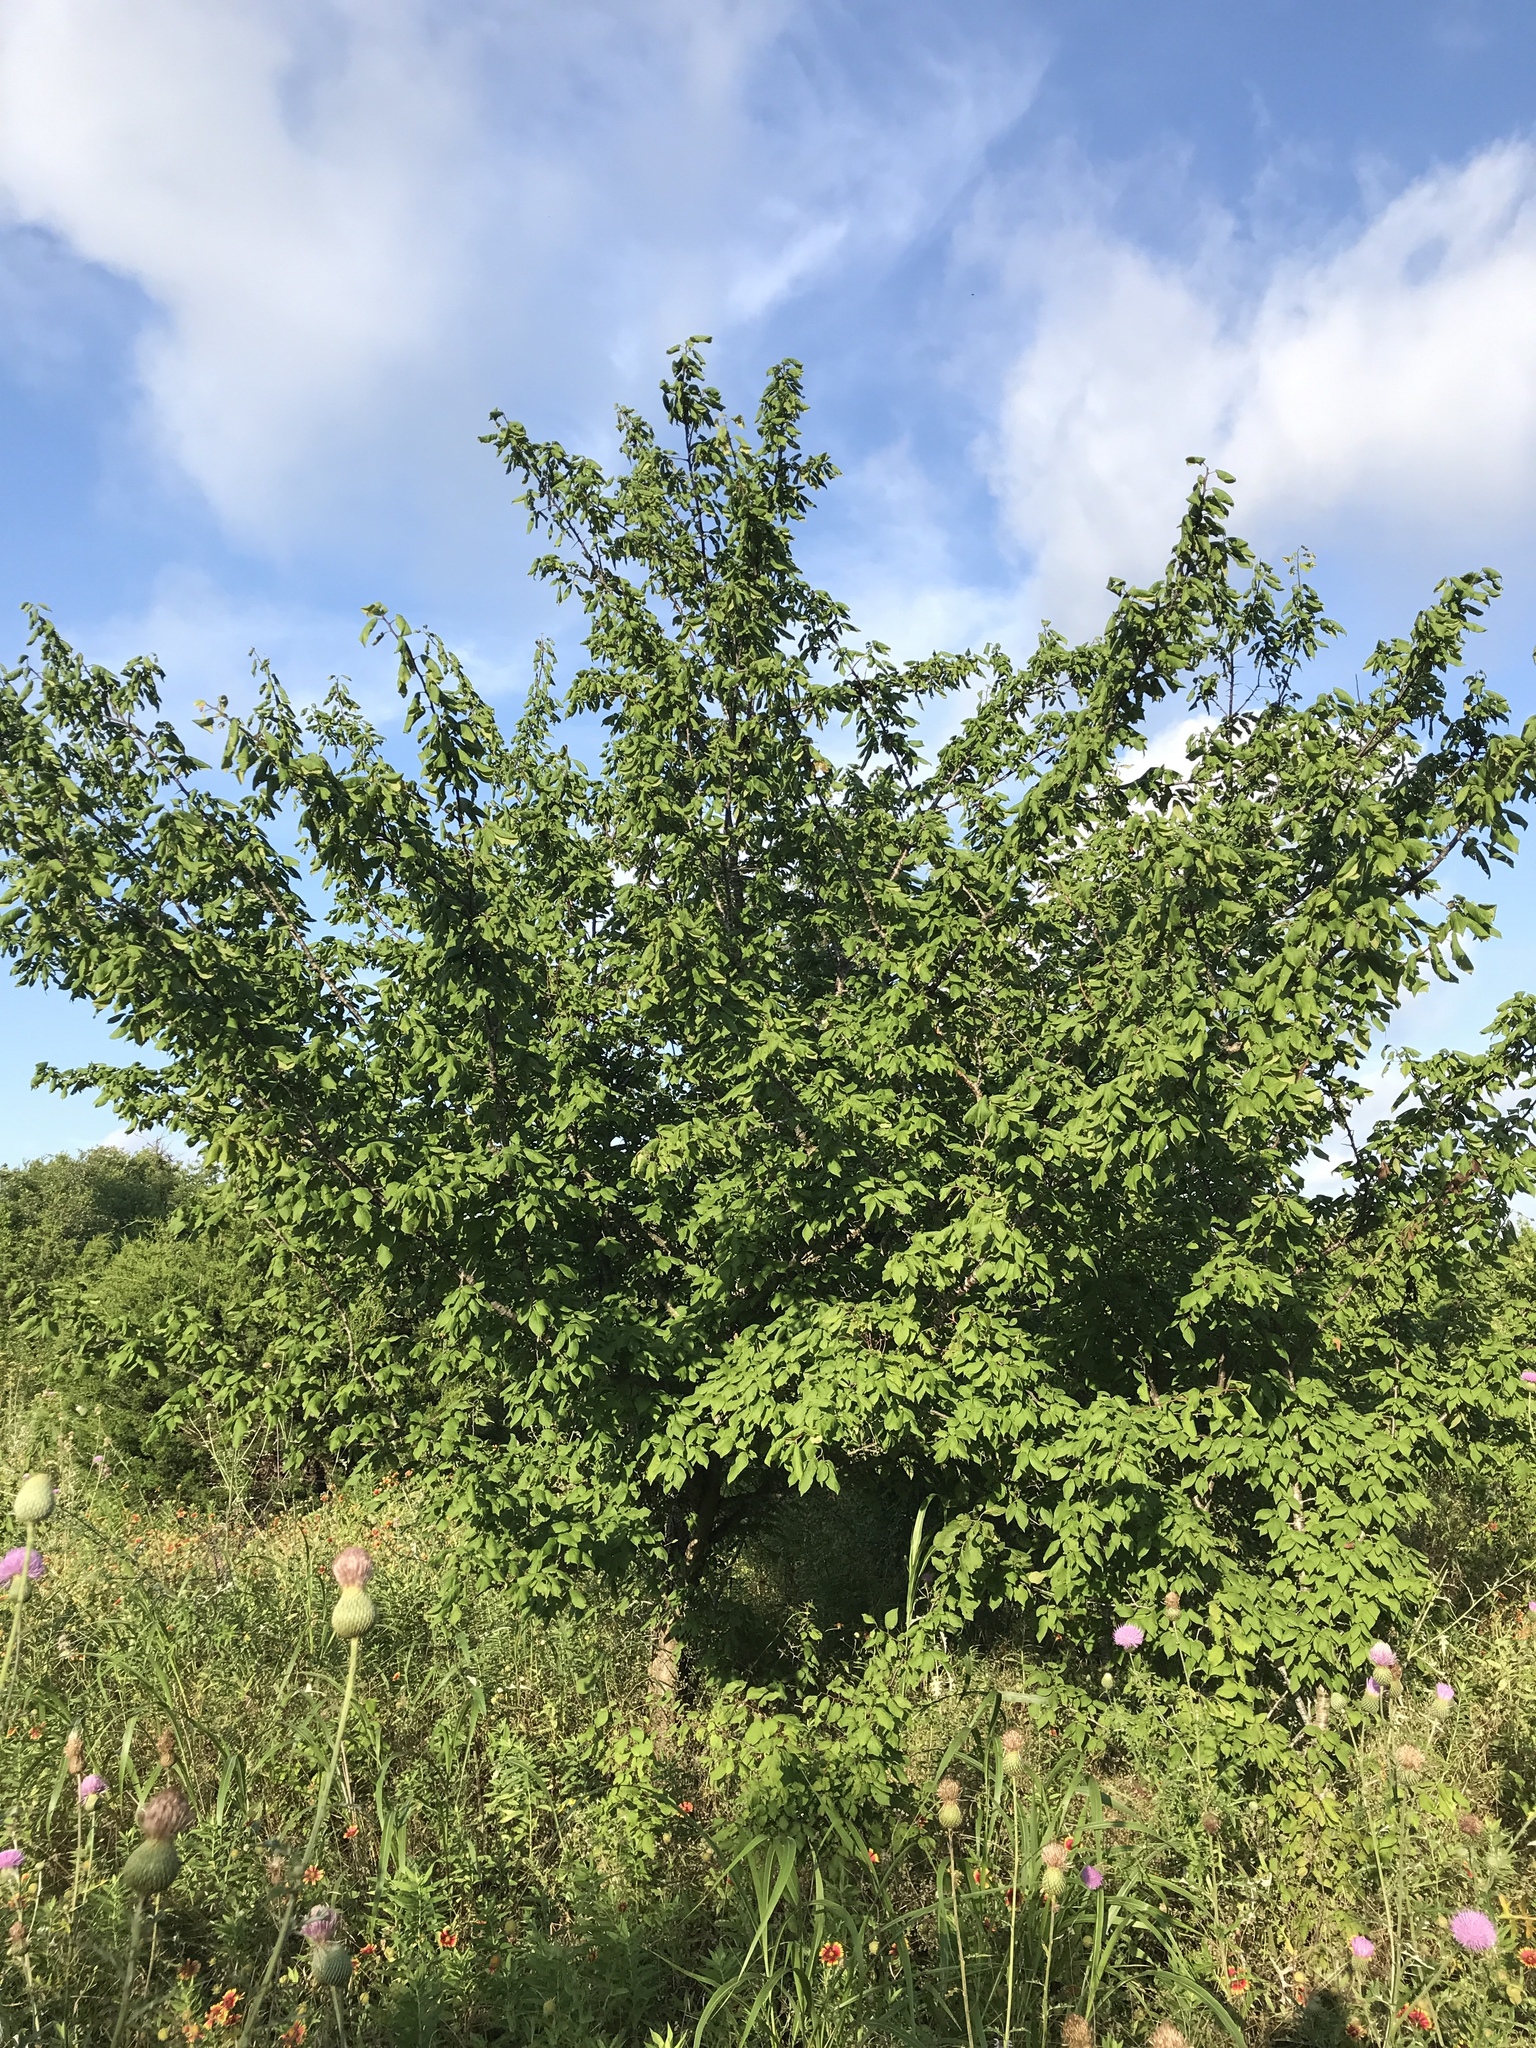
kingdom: Plantae
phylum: Tracheophyta
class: Magnoliopsida
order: Rosales
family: Rosaceae
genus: Prunus
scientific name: Prunus mexicana
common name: Mexican plum
